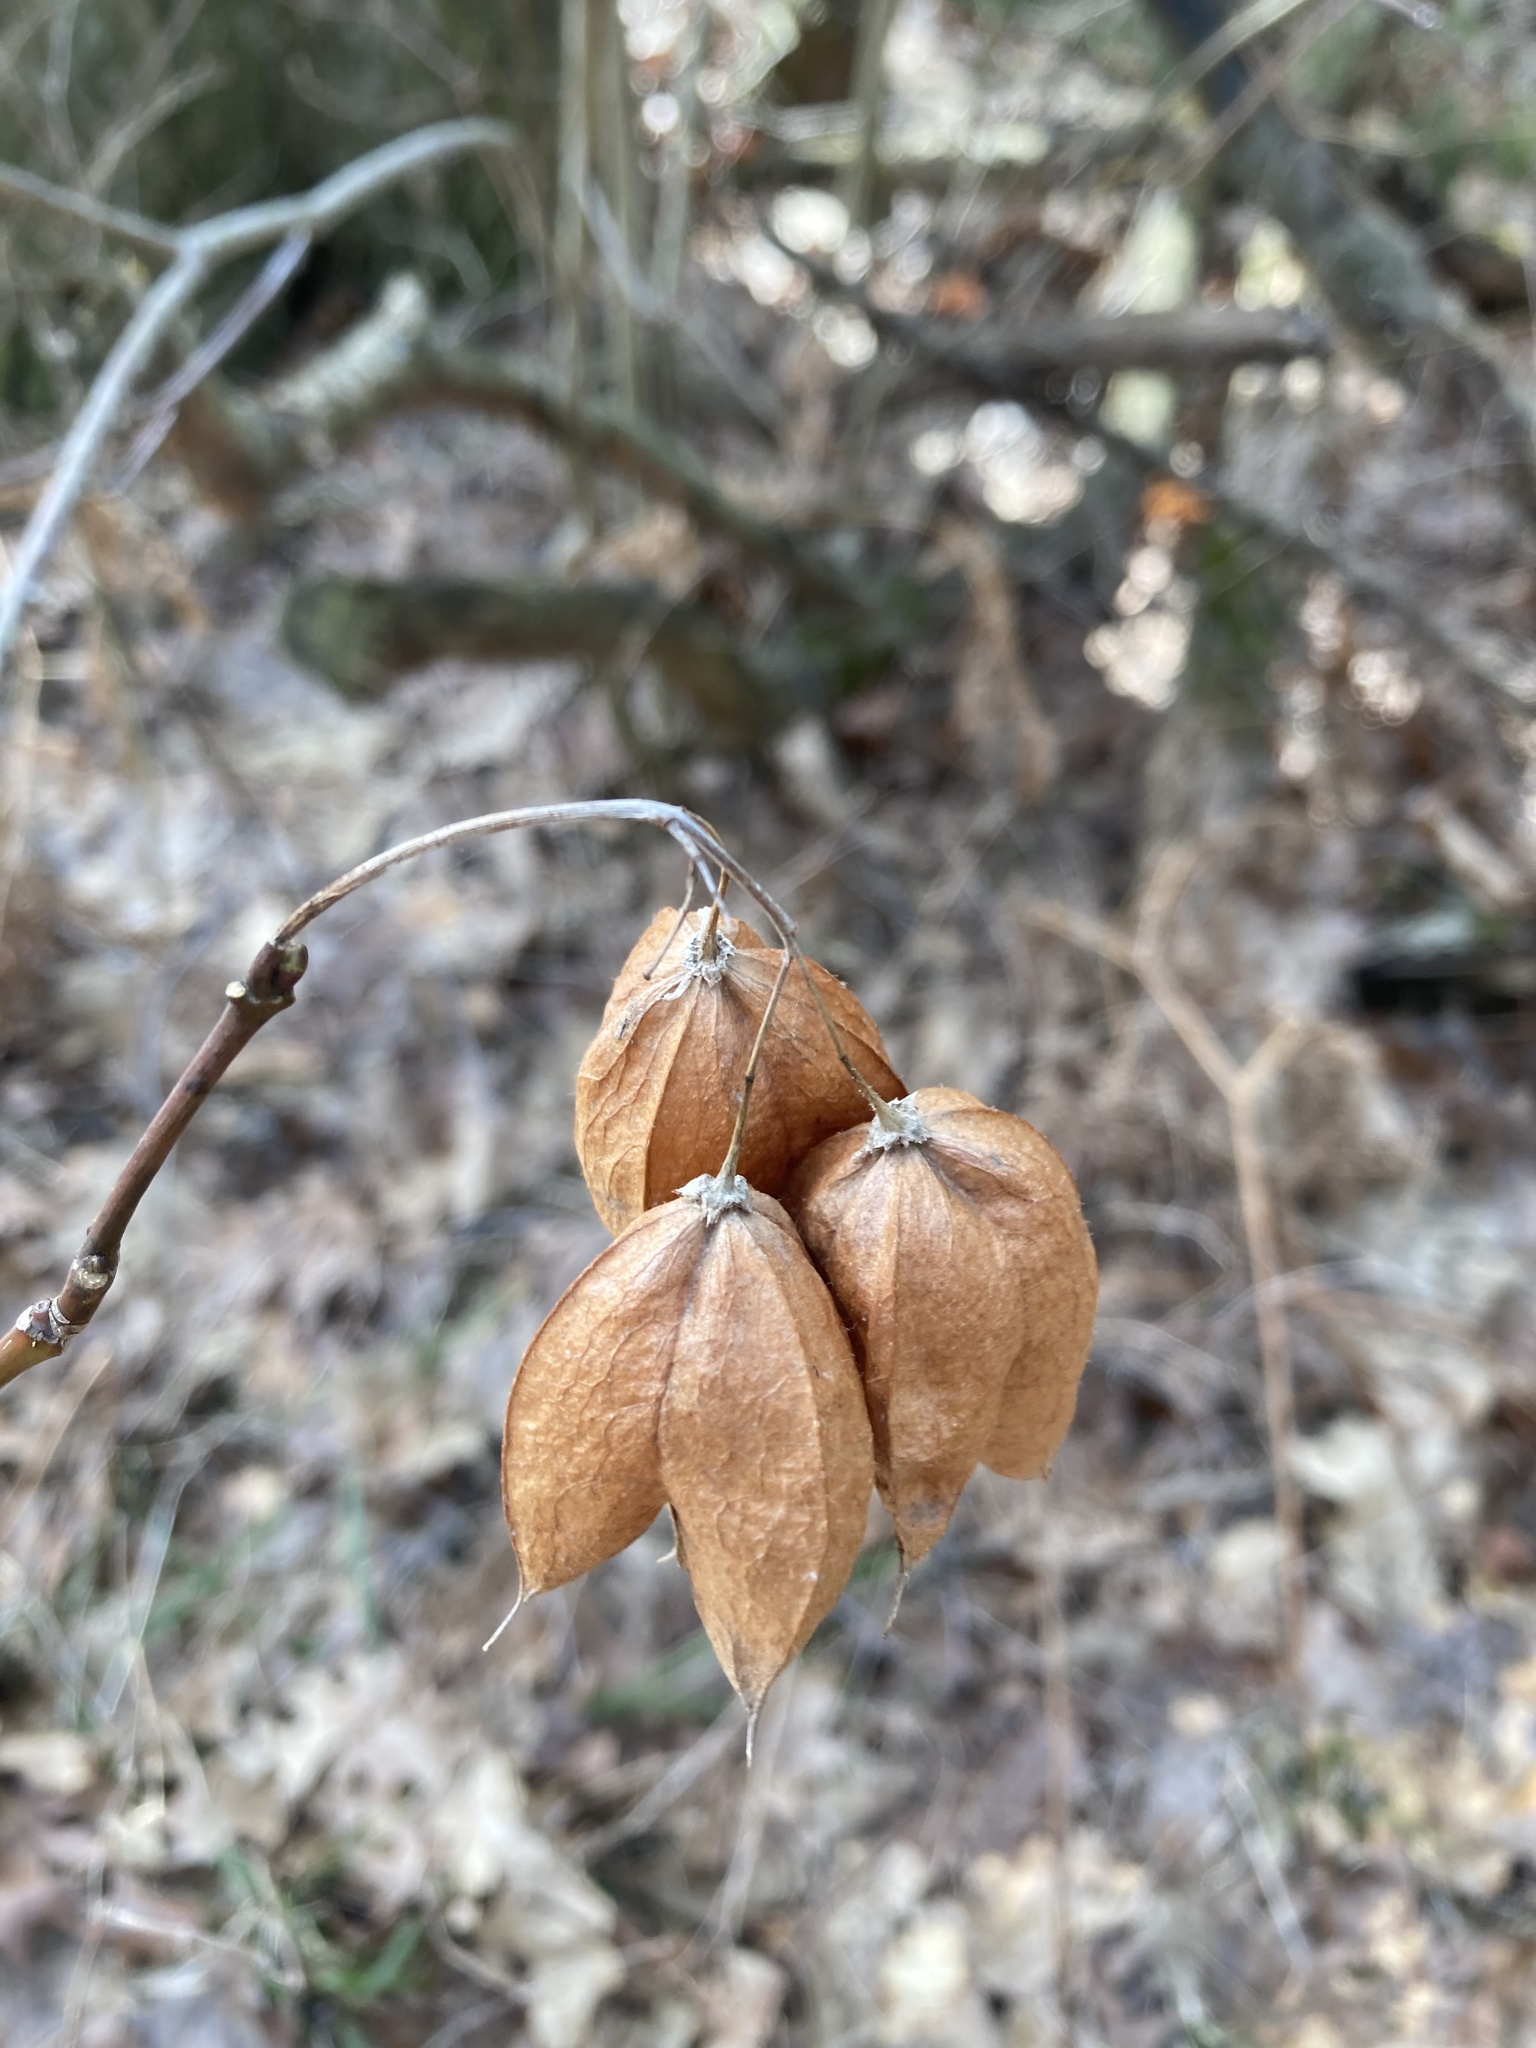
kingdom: Plantae
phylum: Tracheophyta
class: Magnoliopsida
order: Crossosomatales
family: Staphyleaceae
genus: Staphylea
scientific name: Staphylea trifolia
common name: American bladdernut
